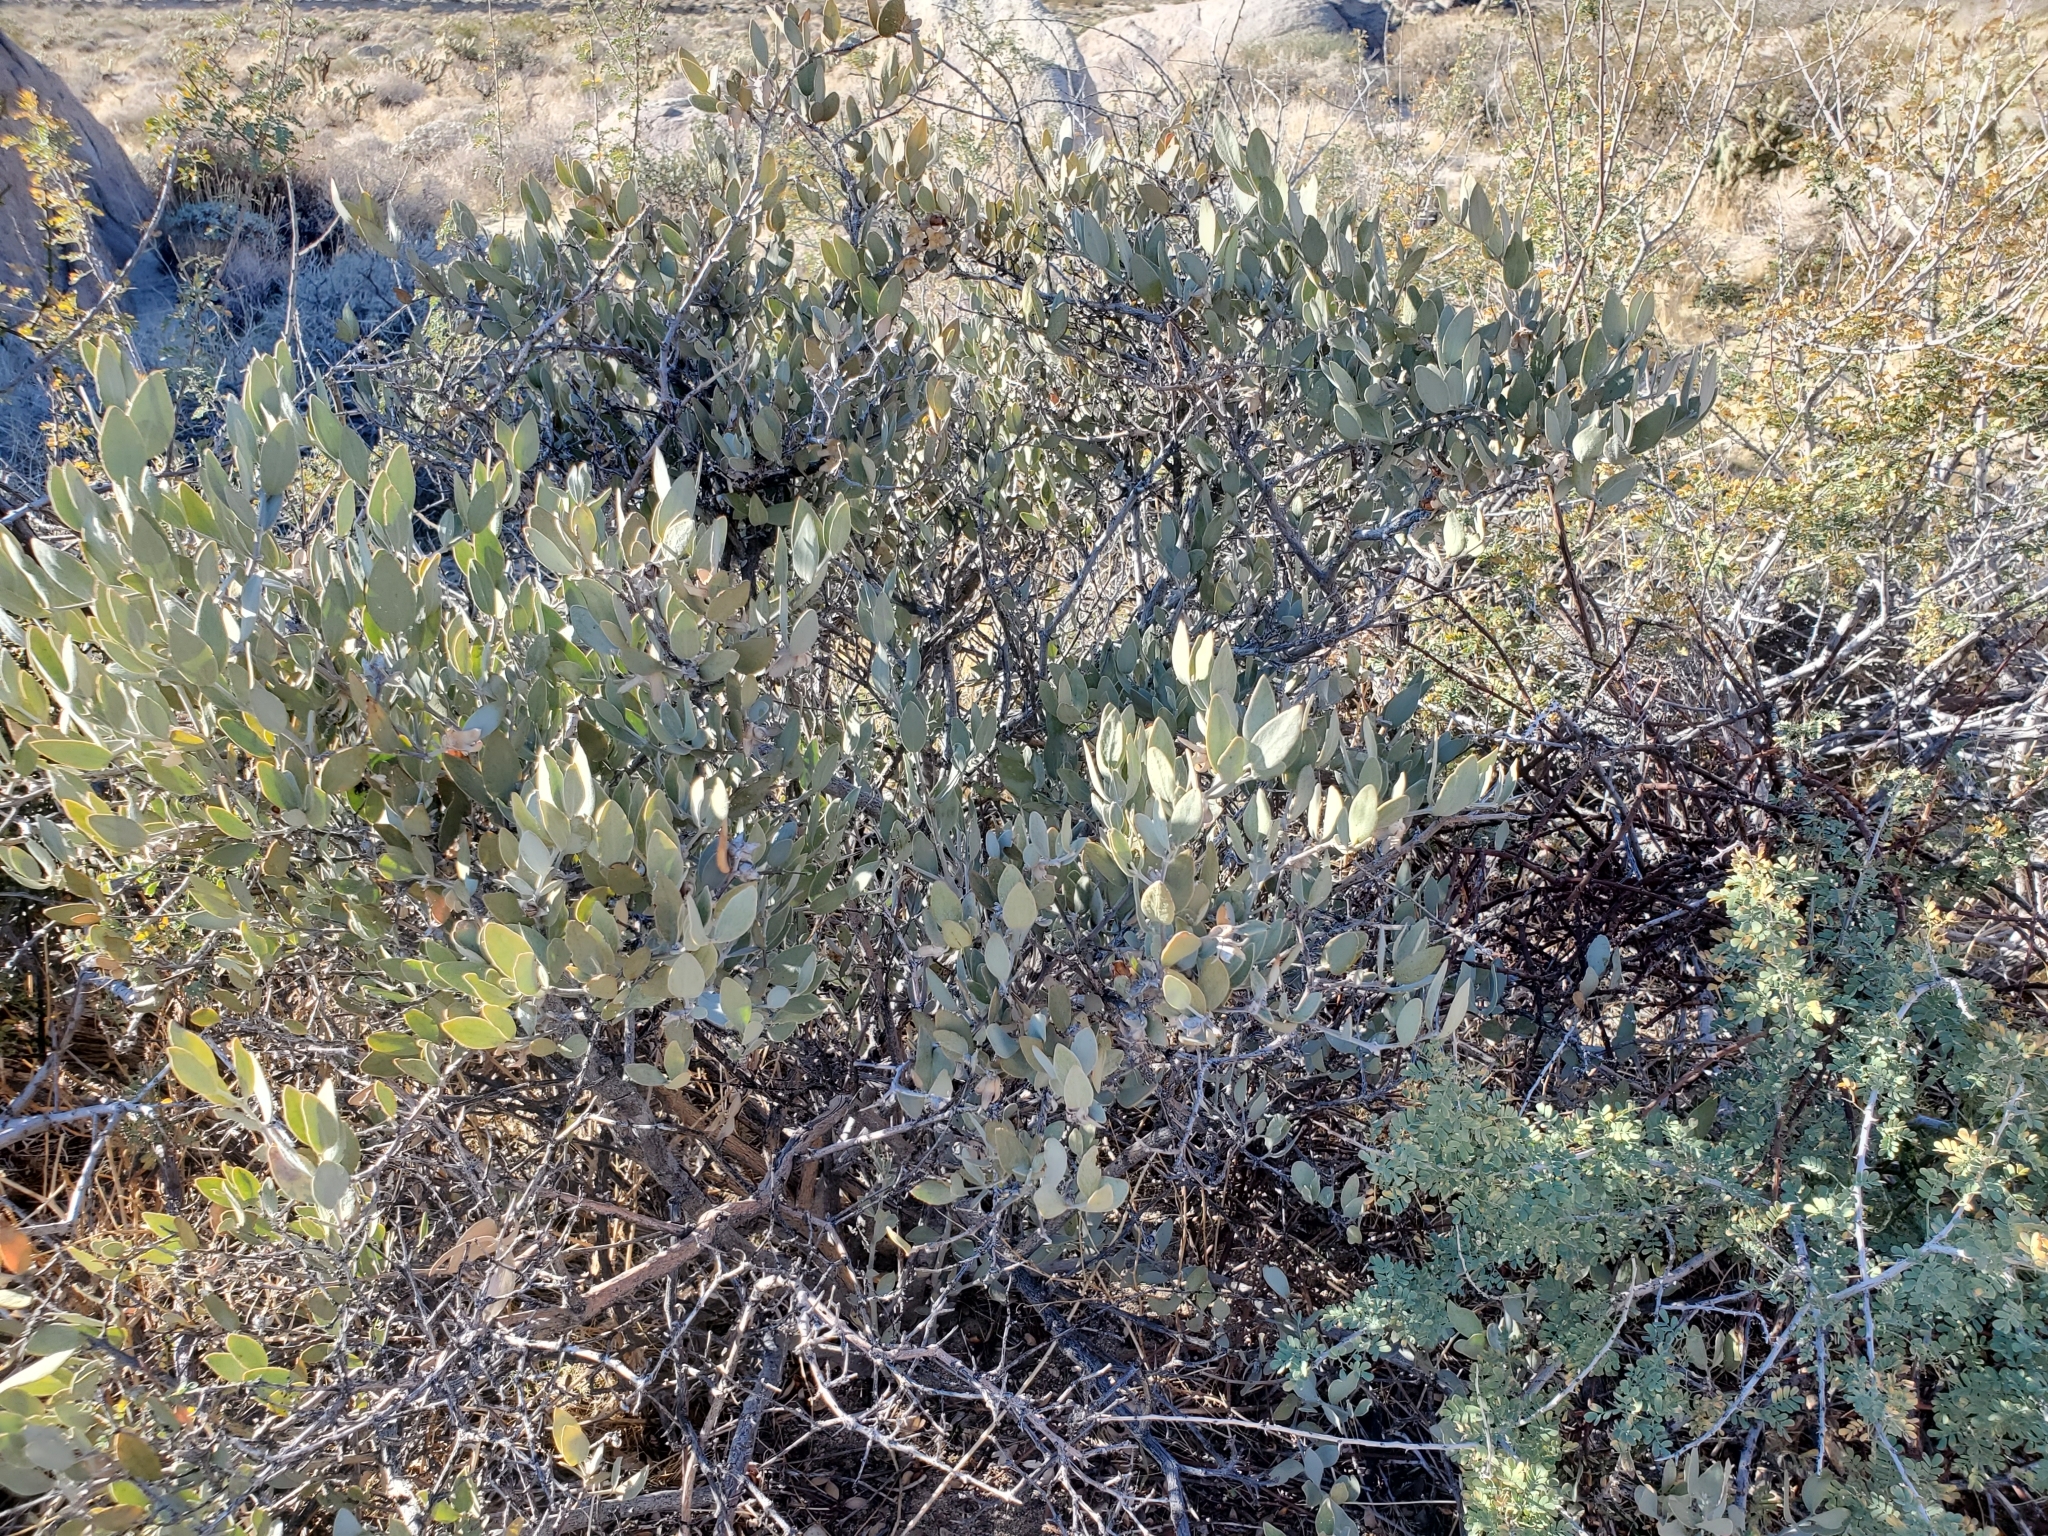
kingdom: Plantae
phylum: Tracheophyta
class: Magnoliopsida
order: Caryophyllales
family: Simmondsiaceae
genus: Simmondsia
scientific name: Simmondsia chinensis
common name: Jojoba
